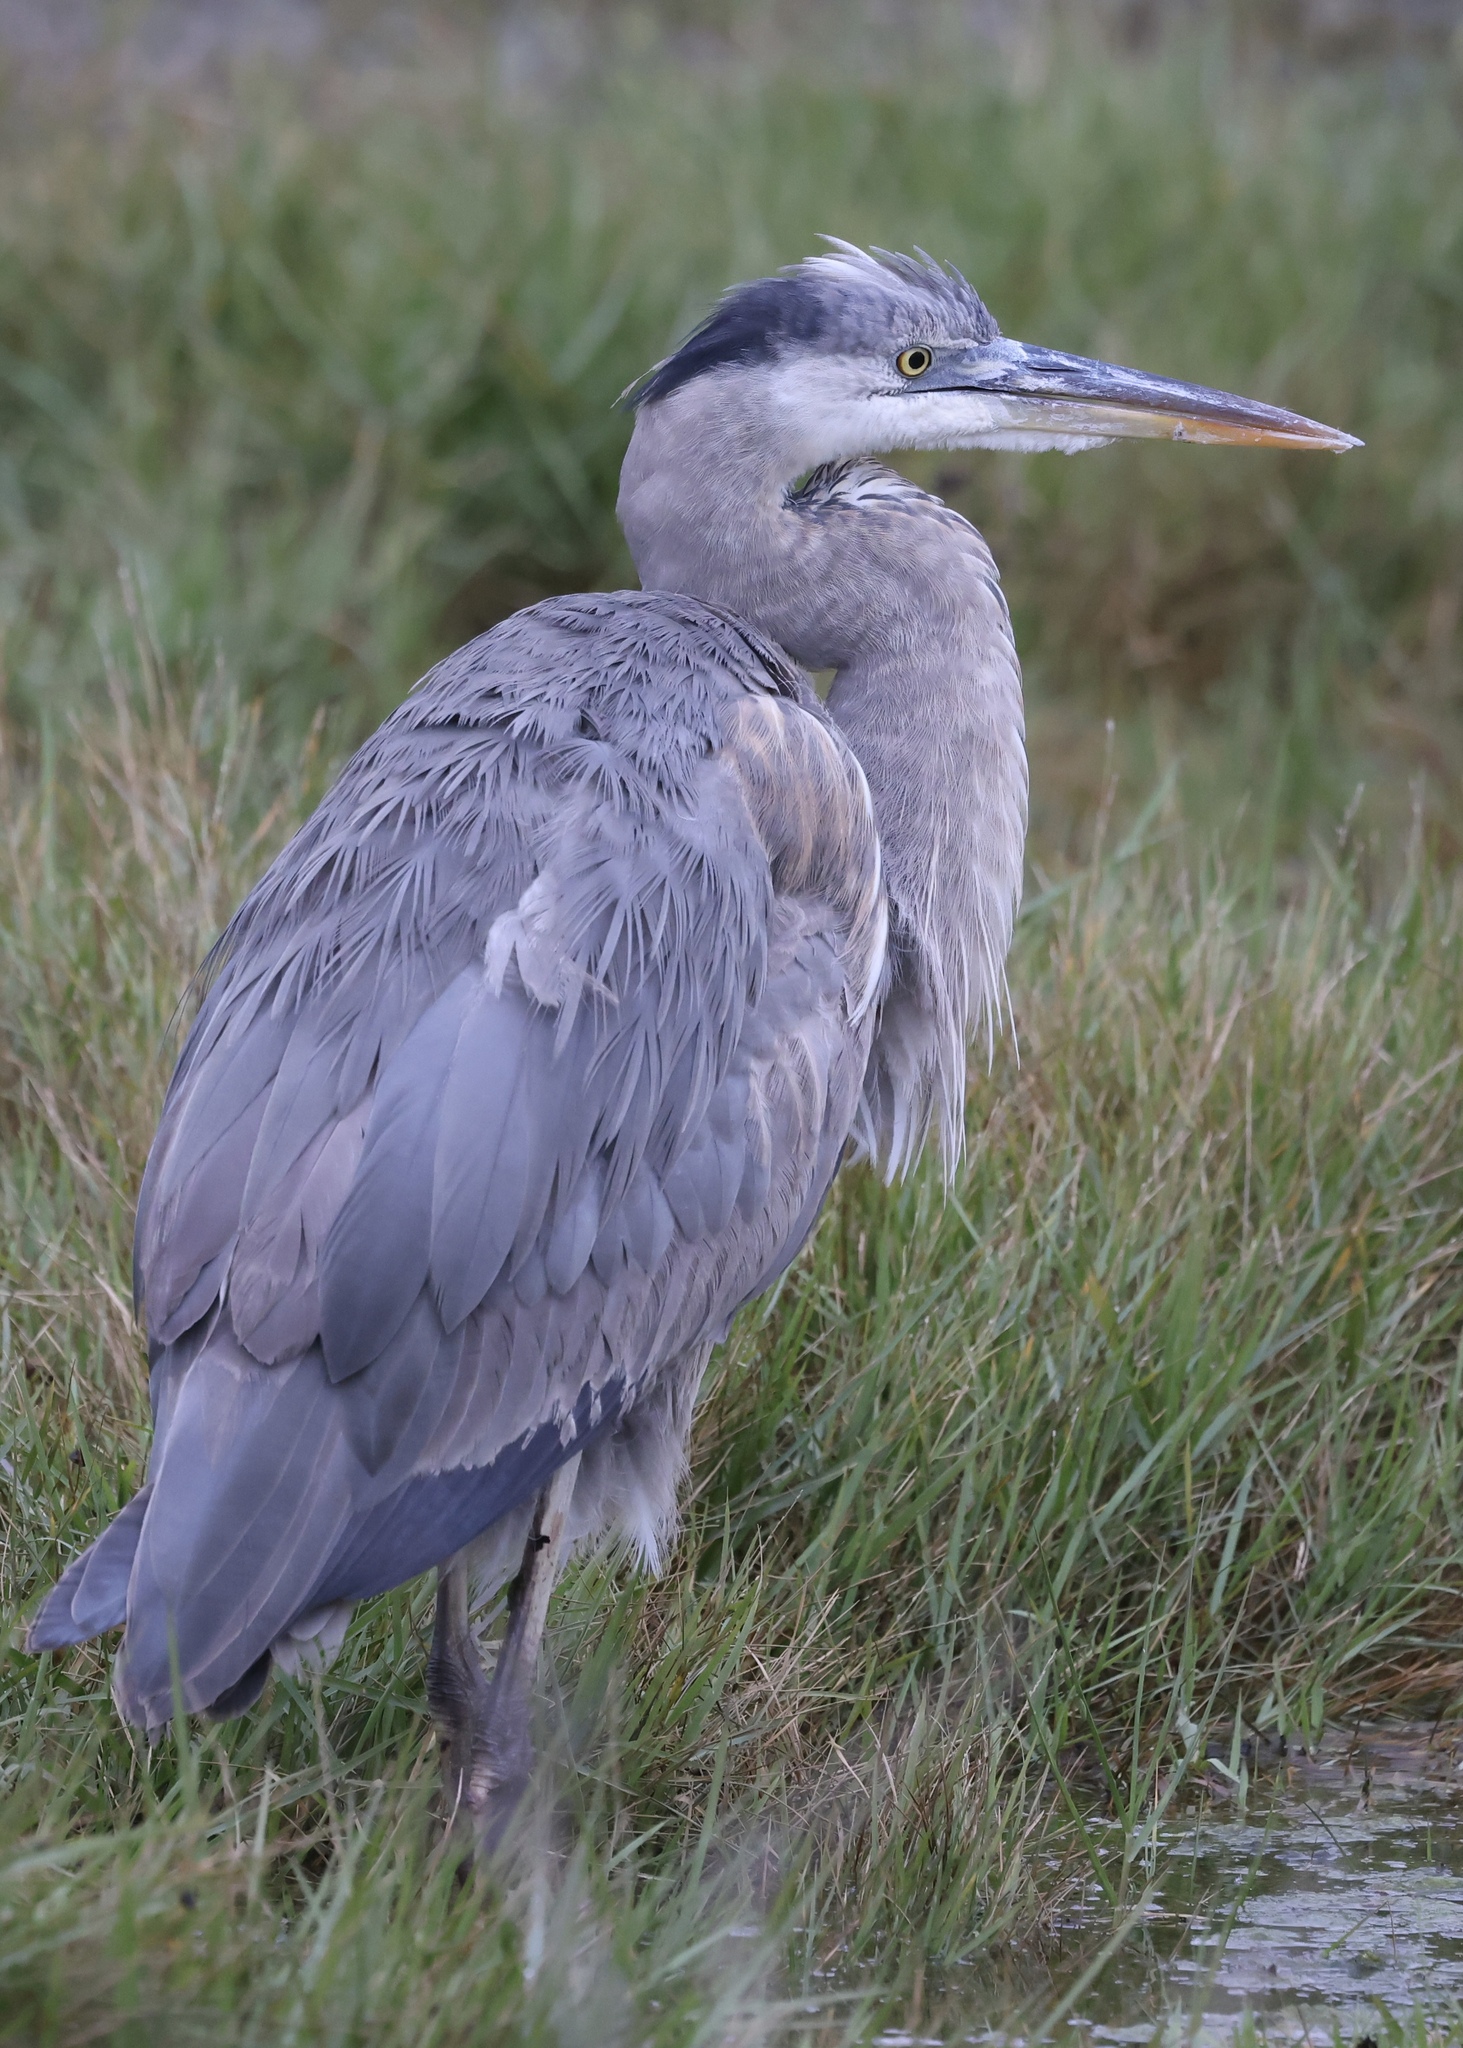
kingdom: Animalia
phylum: Chordata
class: Aves
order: Pelecaniformes
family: Ardeidae
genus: Ardea
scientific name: Ardea herodias
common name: Great blue heron
